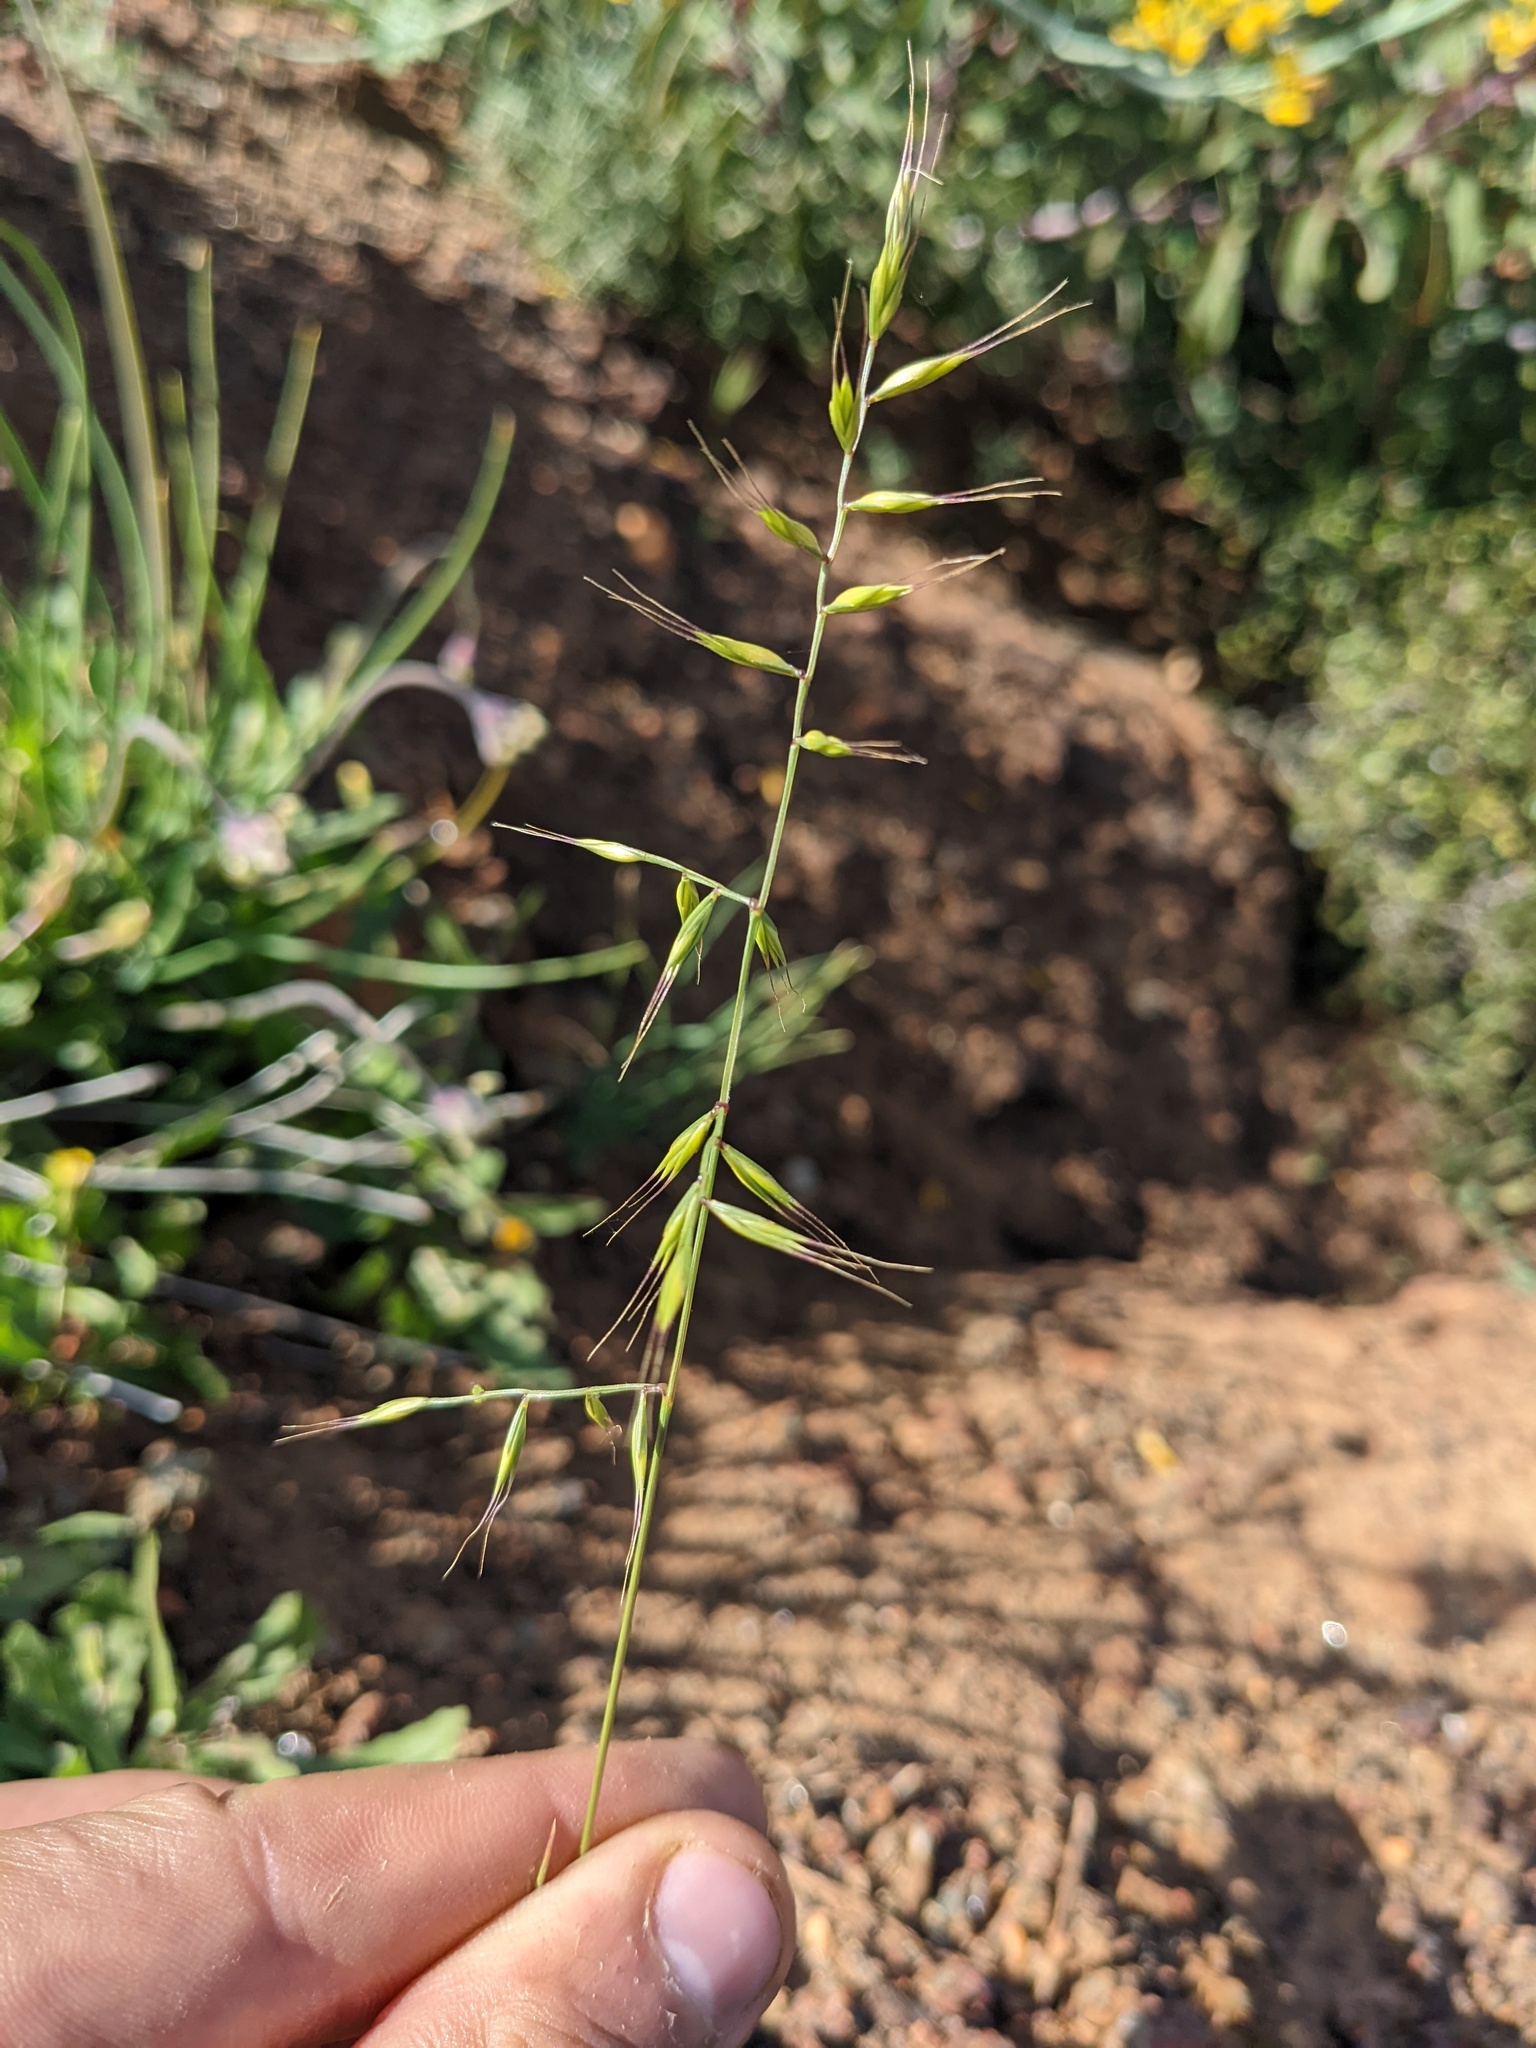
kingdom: Plantae
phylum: Tracheophyta
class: Liliopsida
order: Poales
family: Poaceae
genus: Festuca
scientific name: Festuca microstachys
